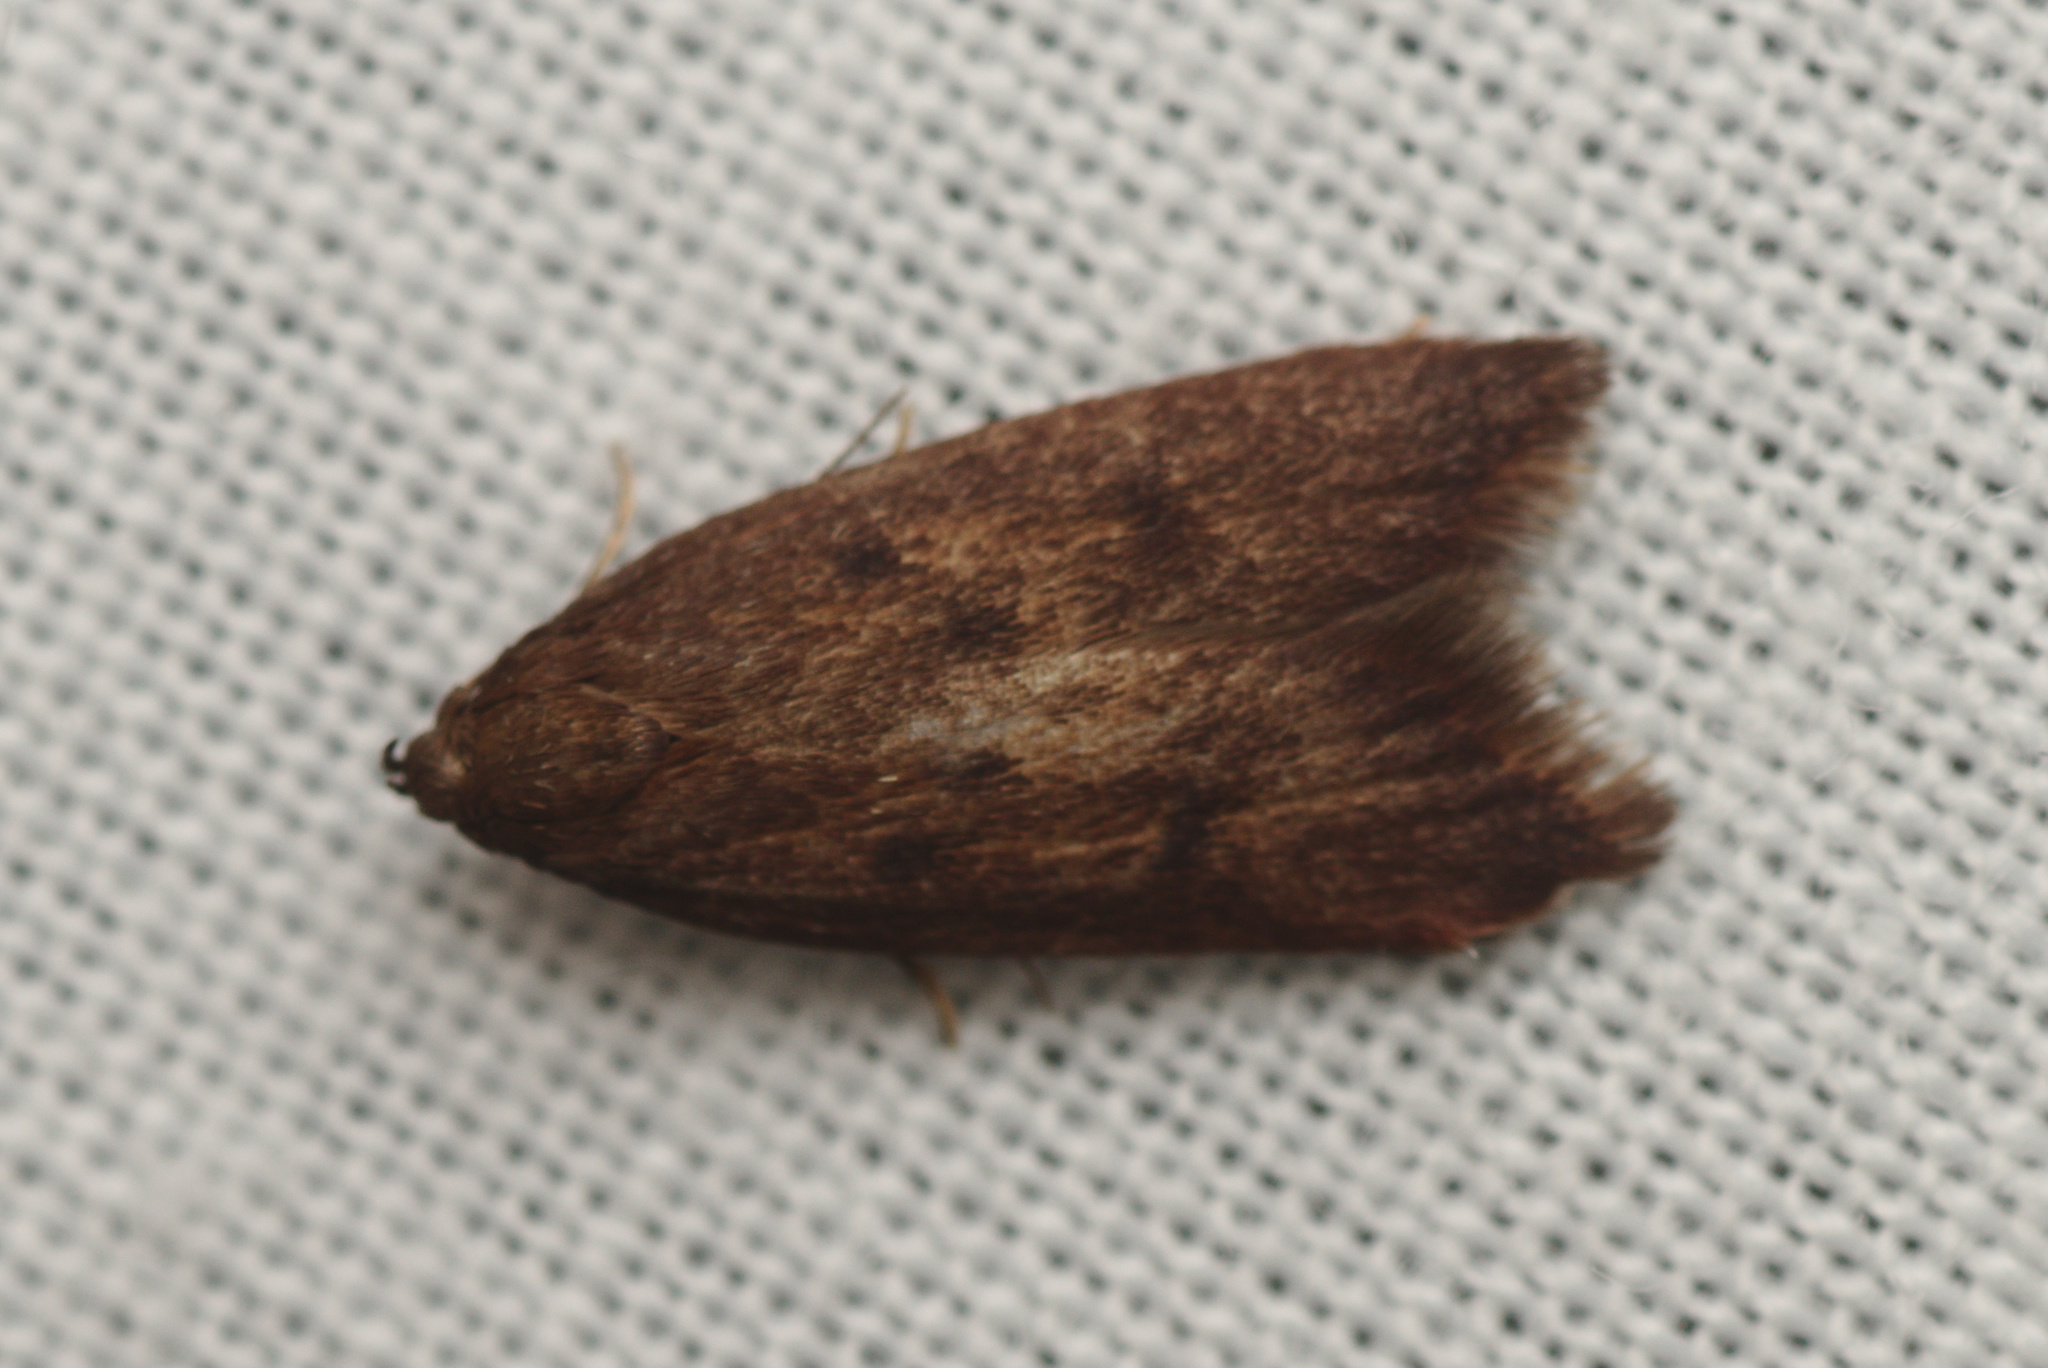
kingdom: Animalia
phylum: Arthropoda
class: Insecta
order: Lepidoptera
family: Oecophoridae
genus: Tachystola
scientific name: Tachystola acroxantha
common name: Ruddy streak
